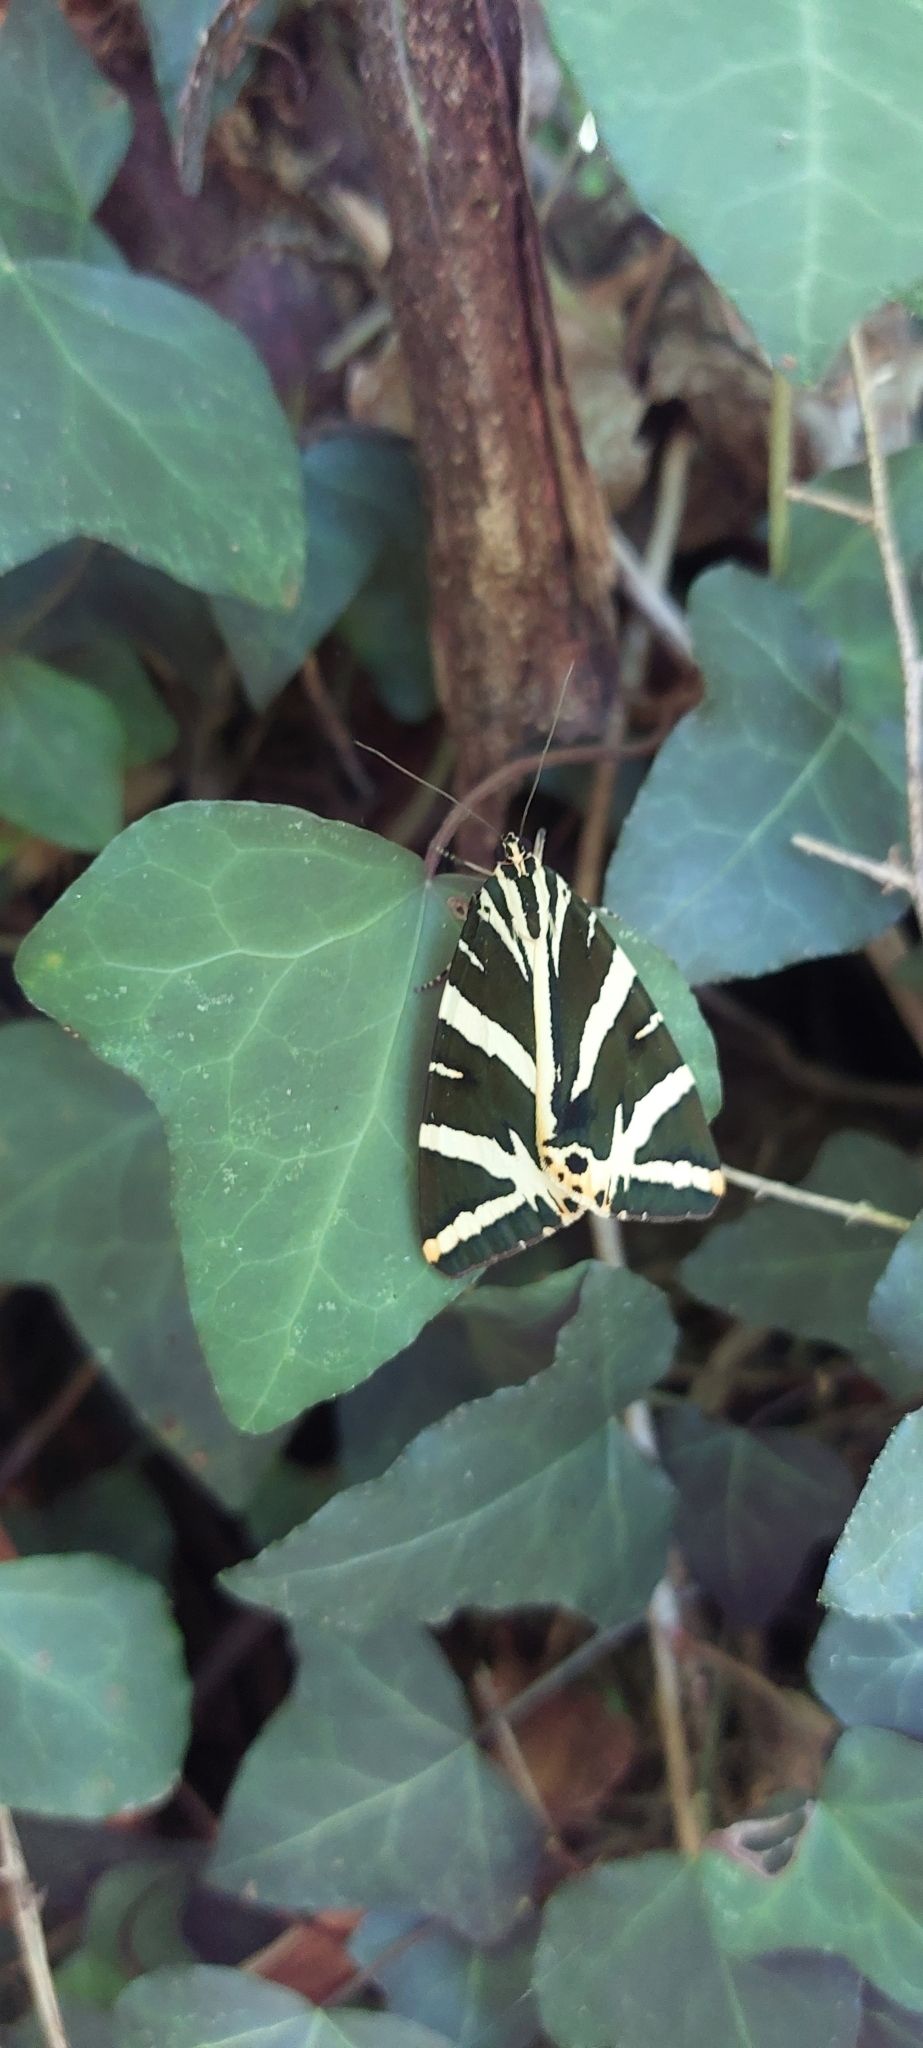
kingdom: Animalia
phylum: Arthropoda
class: Insecta
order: Lepidoptera
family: Erebidae
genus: Euplagia
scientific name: Euplagia quadripunctaria
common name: Jersey tiger
